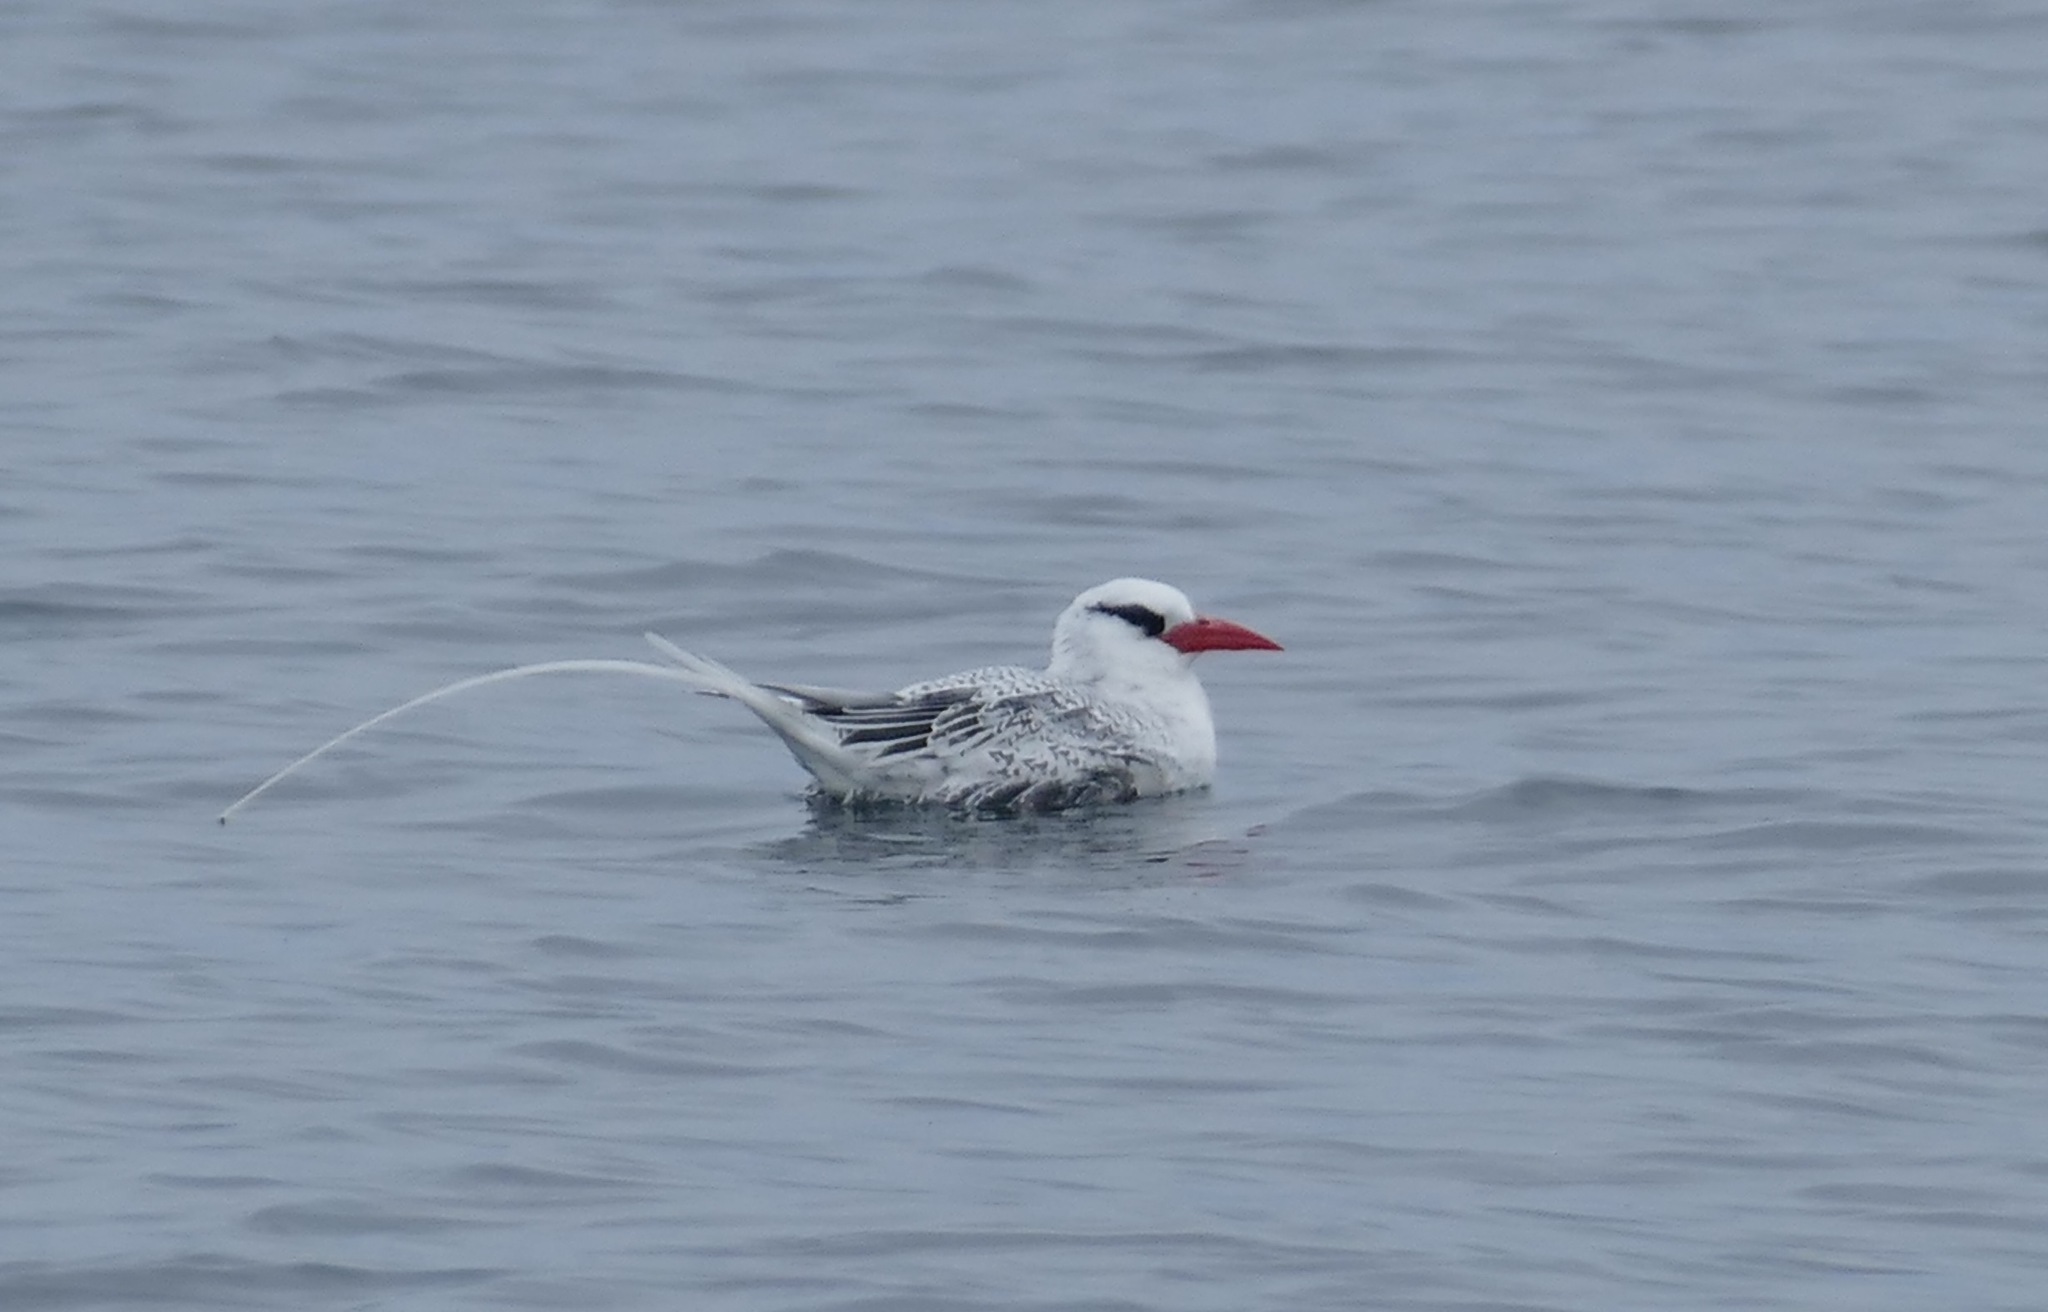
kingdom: Animalia
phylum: Chordata
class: Aves
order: Phaethontiformes
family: Phaethontidae
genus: Phaethon
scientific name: Phaethon aethereus
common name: Red-billed tropicbird
